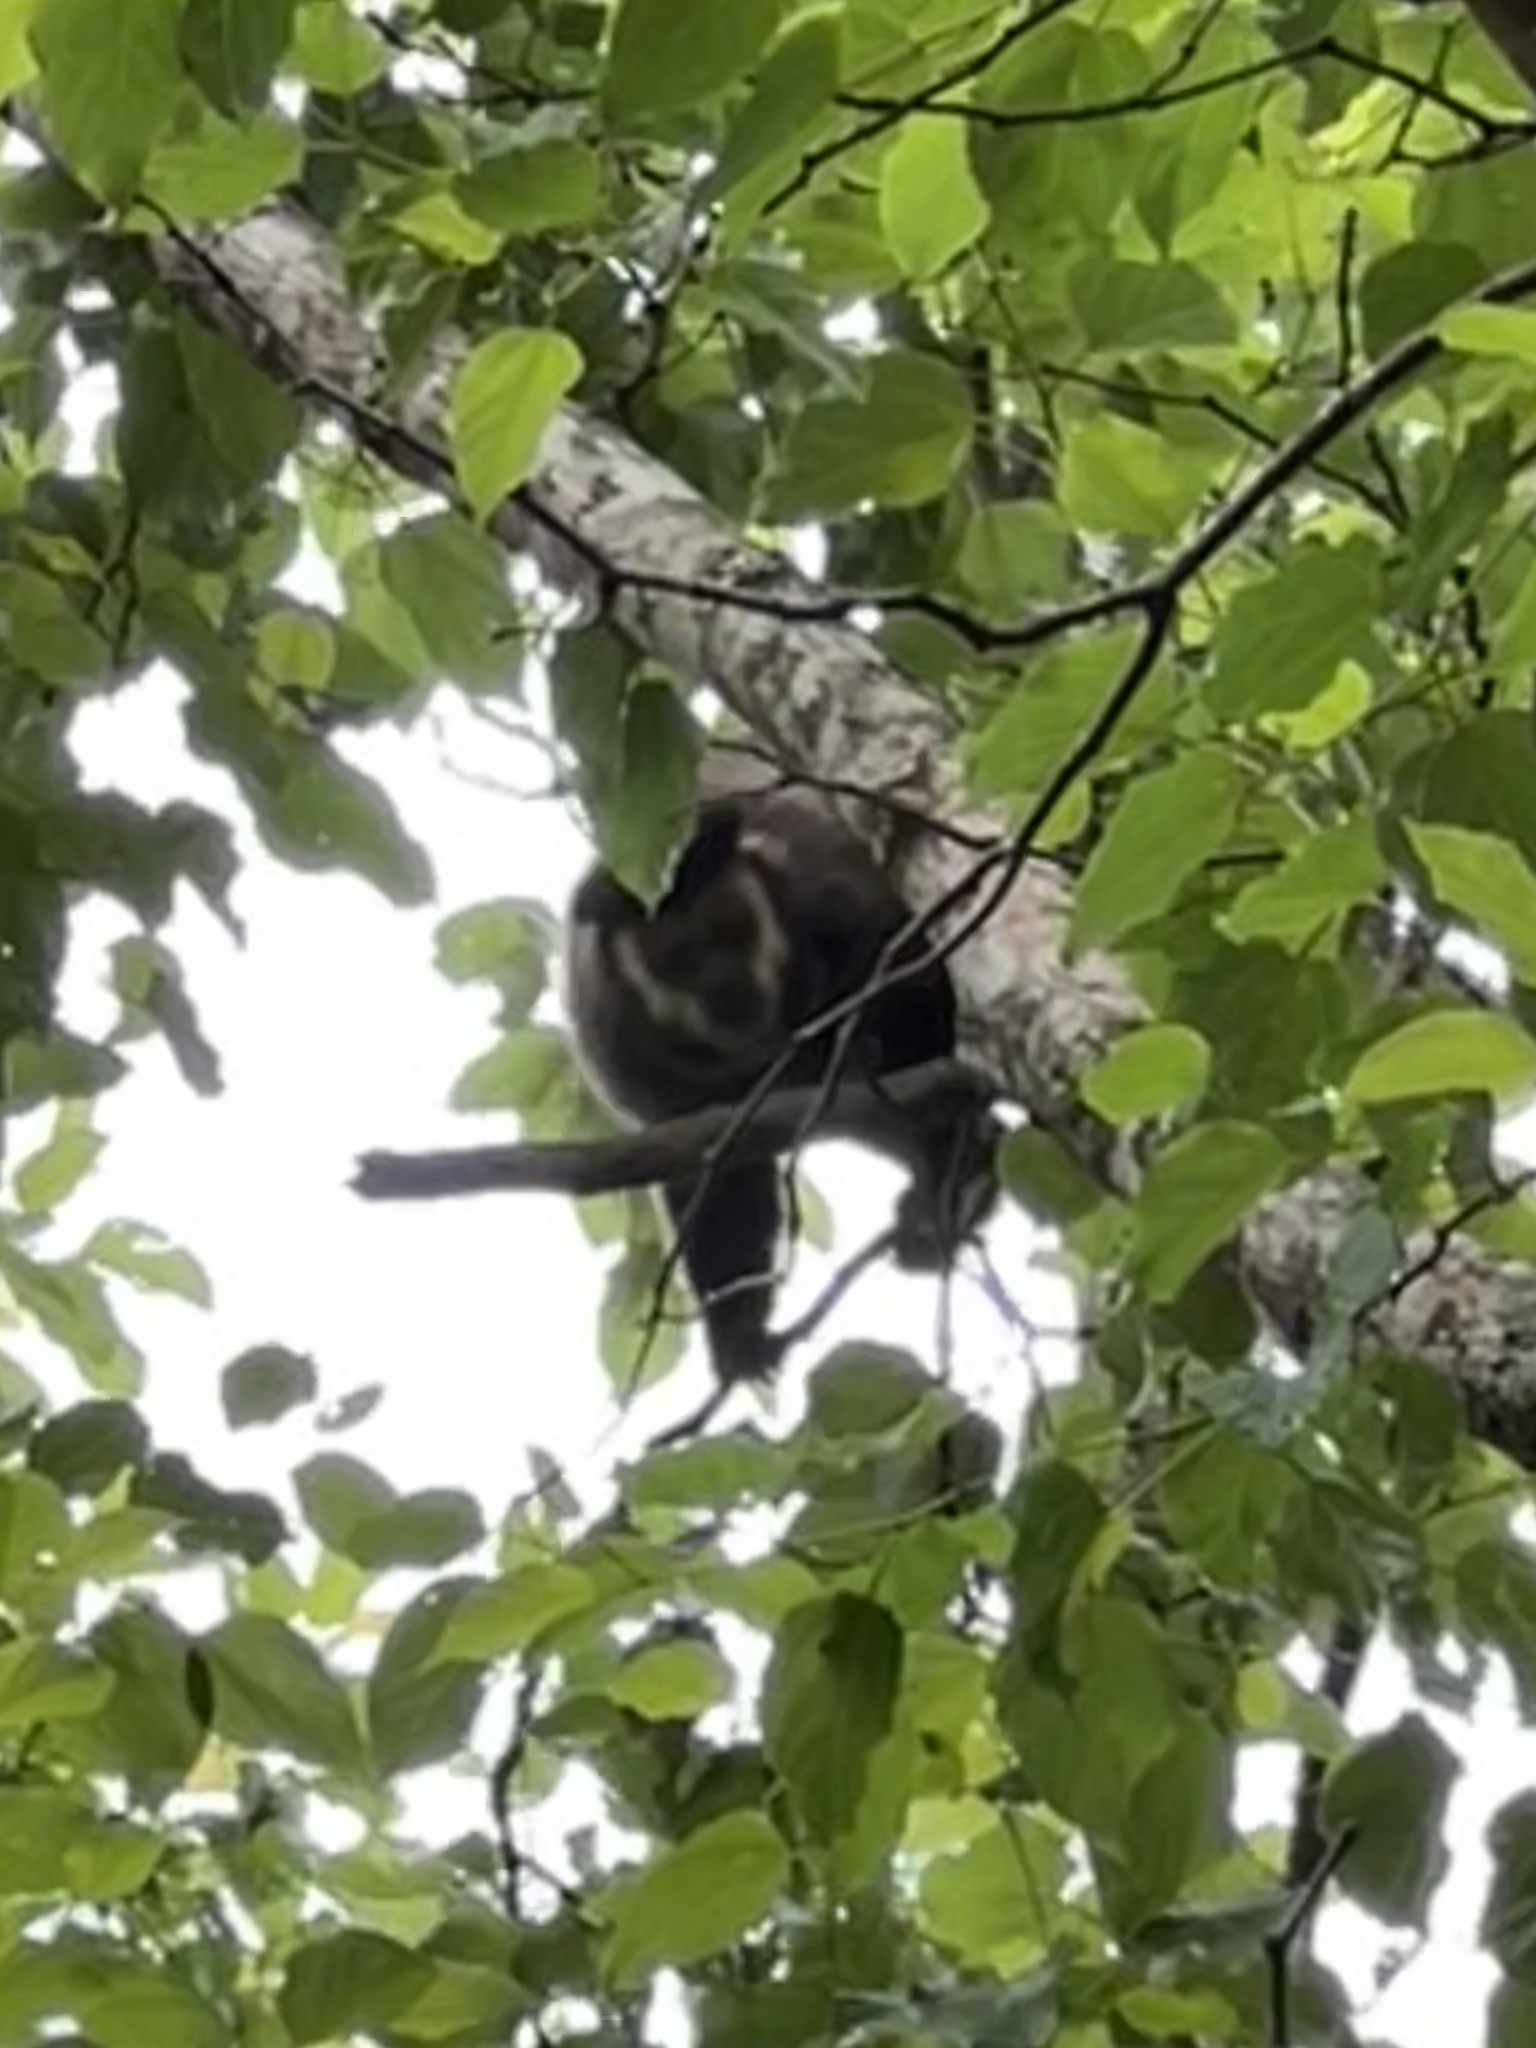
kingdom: Animalia
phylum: Chordata
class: Mammalia
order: Primates
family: Cebidae
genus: Sapajus
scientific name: Sapajus nigritus
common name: Black capuchin
